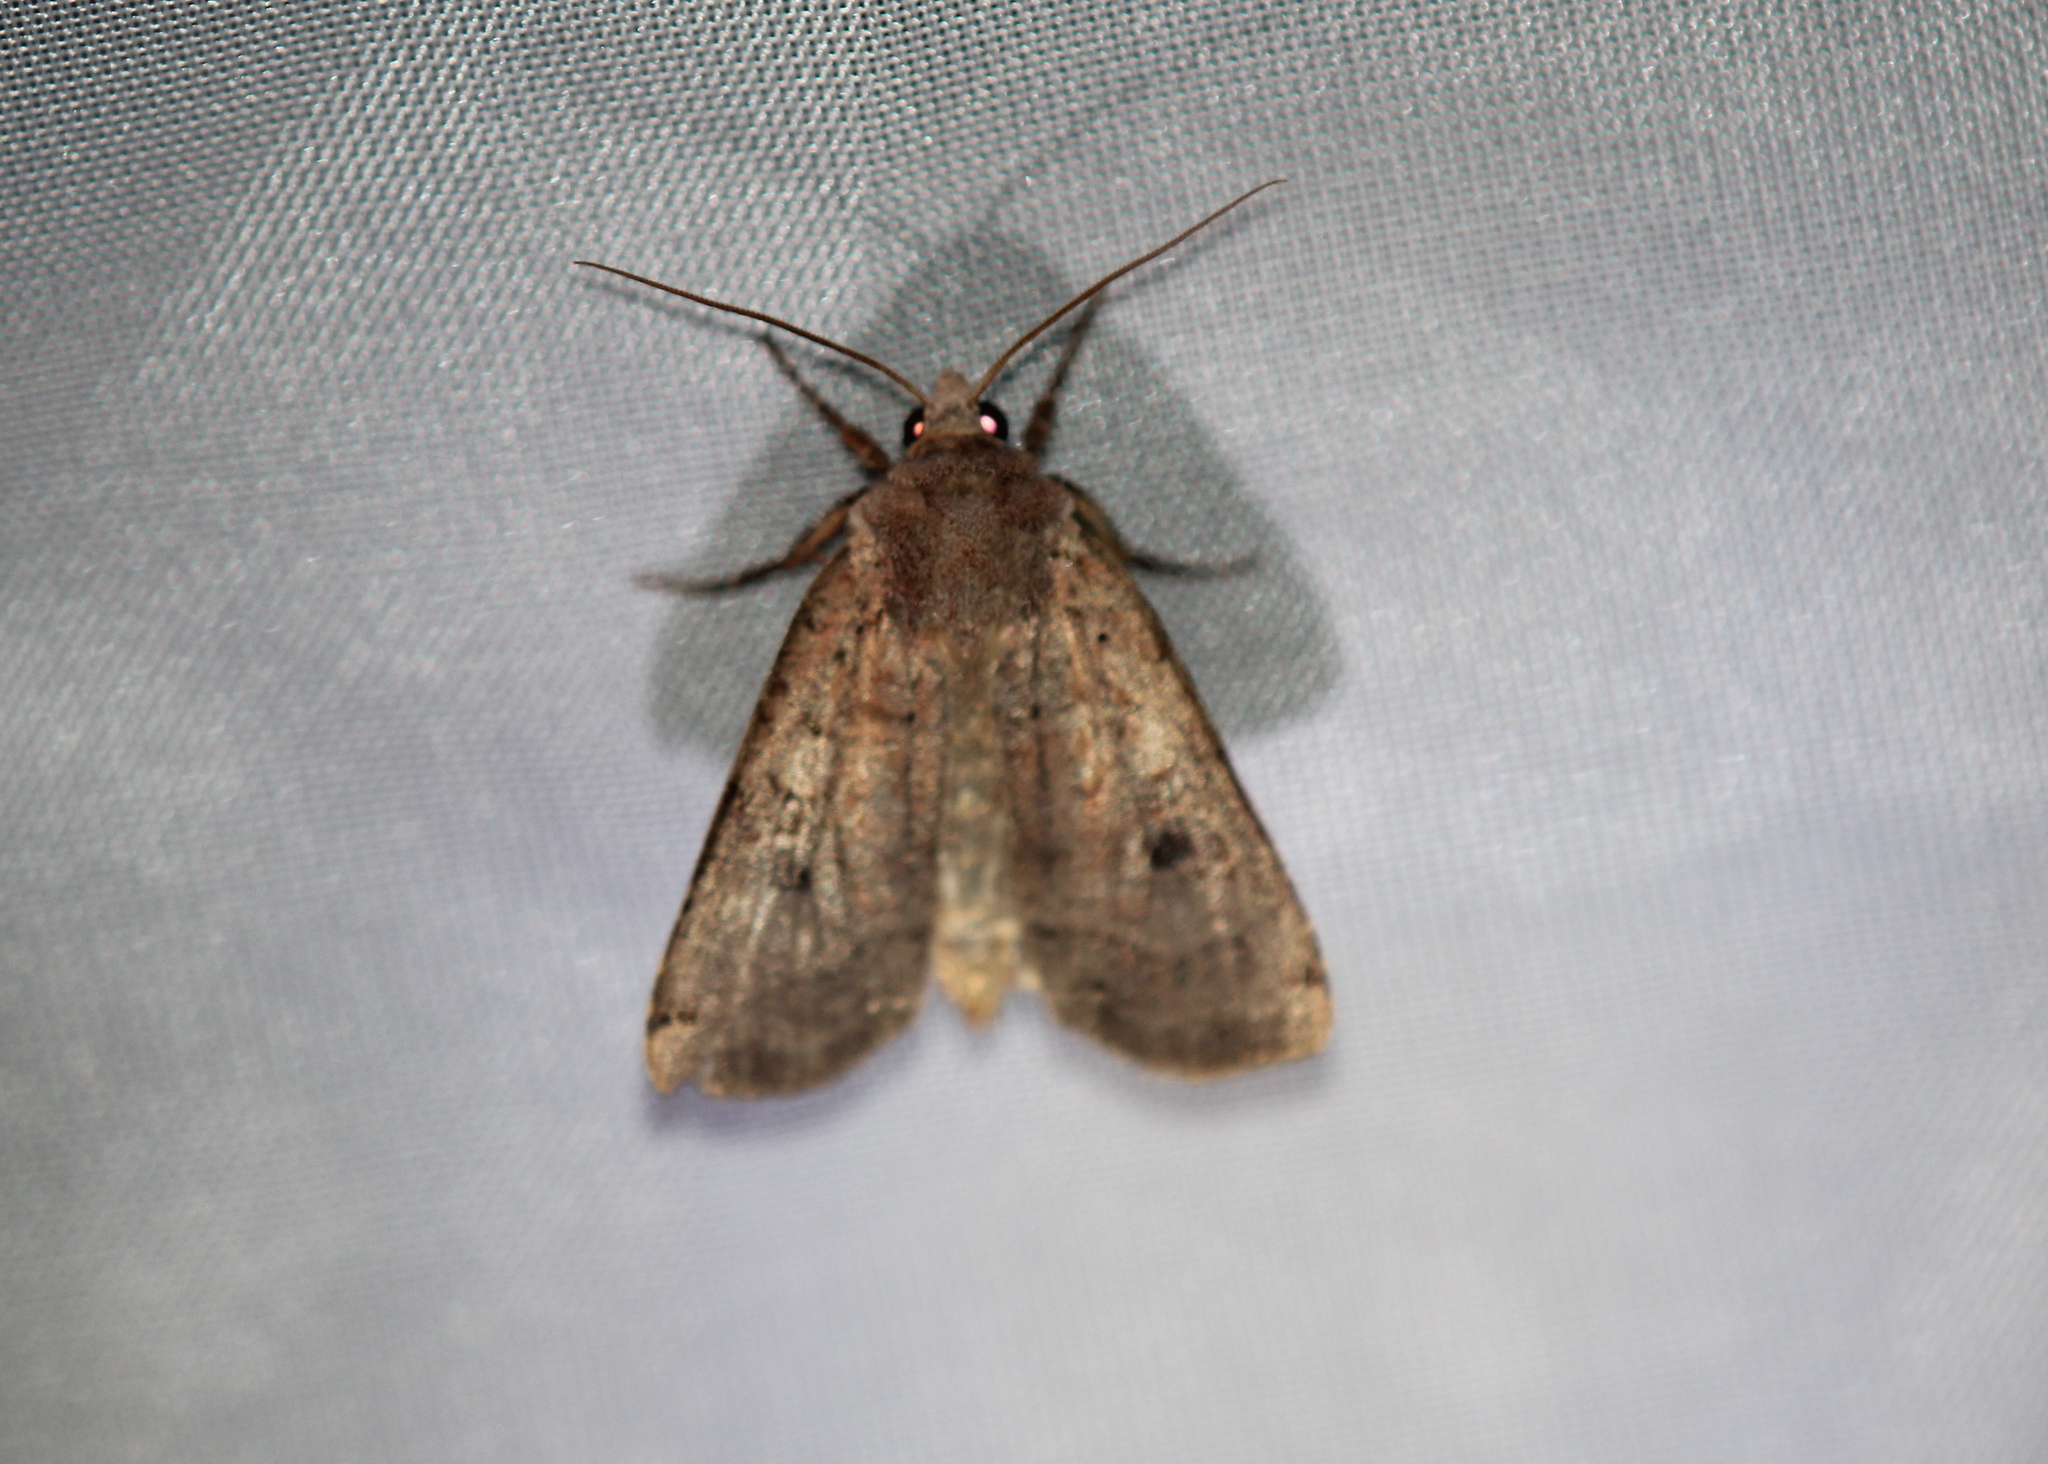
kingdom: Animalia
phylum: Arthropoda
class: Insecta
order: Lepidoptera
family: Noctuidae
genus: Xestia
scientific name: Xestia smithii
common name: Smith's dart
